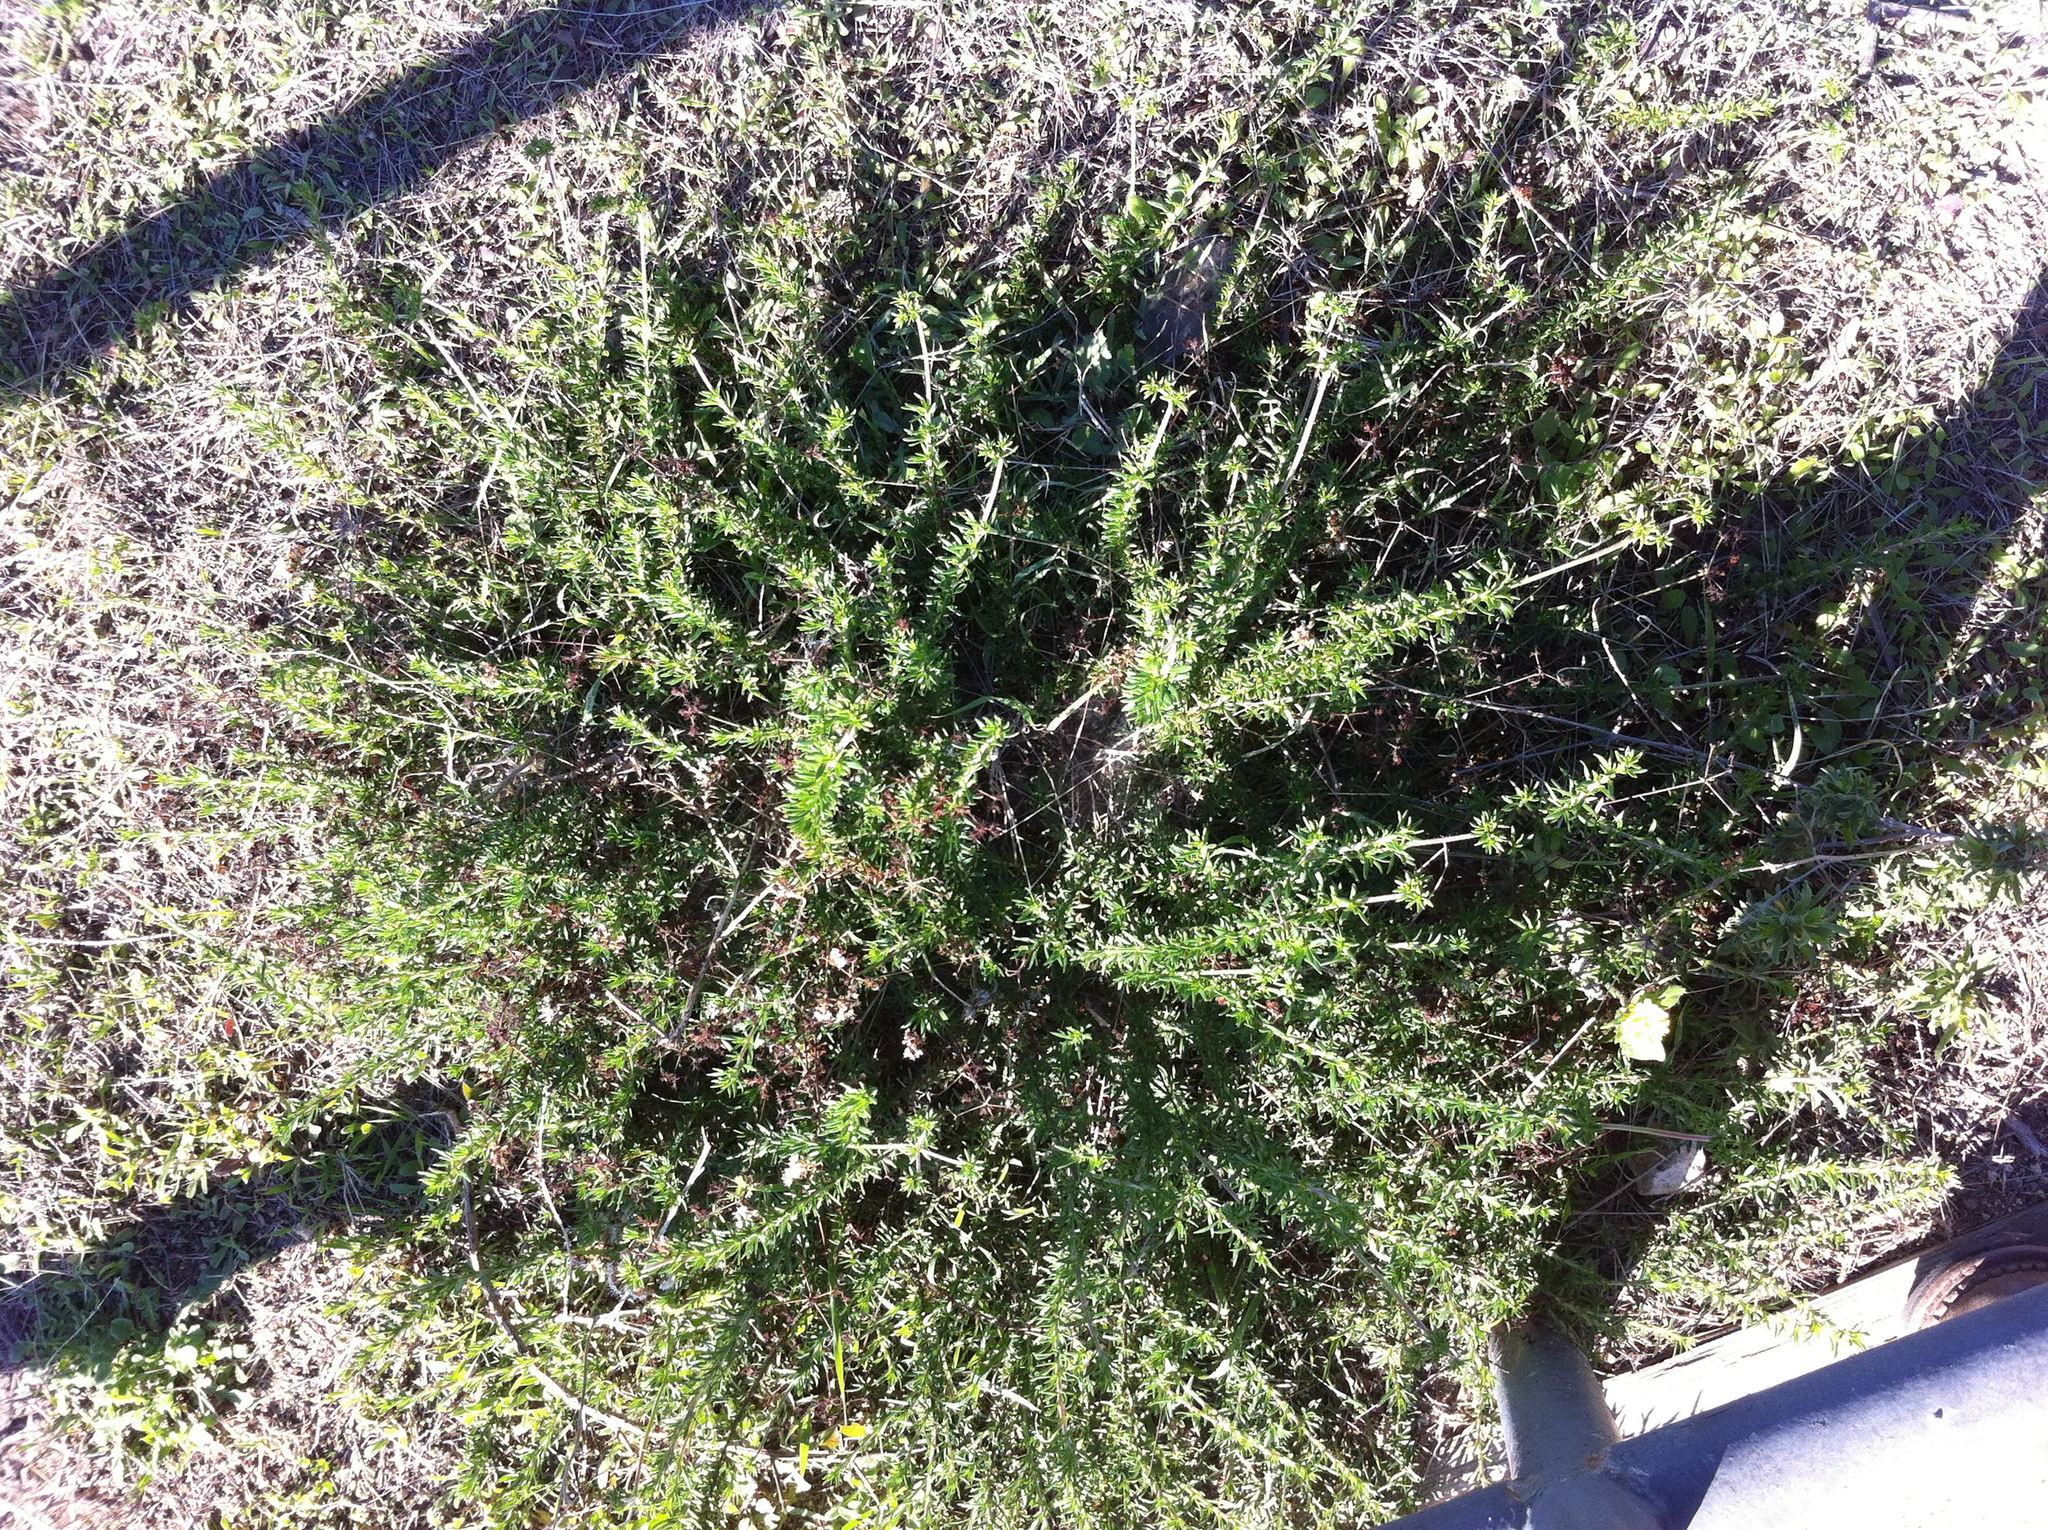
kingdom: Plantae
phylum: Tracheophyta
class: Magnoliopsida
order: Caryophyllales
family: Polygonaceae
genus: Eriogonum
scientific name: Eriogonum fasciculatum
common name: California wild buckwheat
